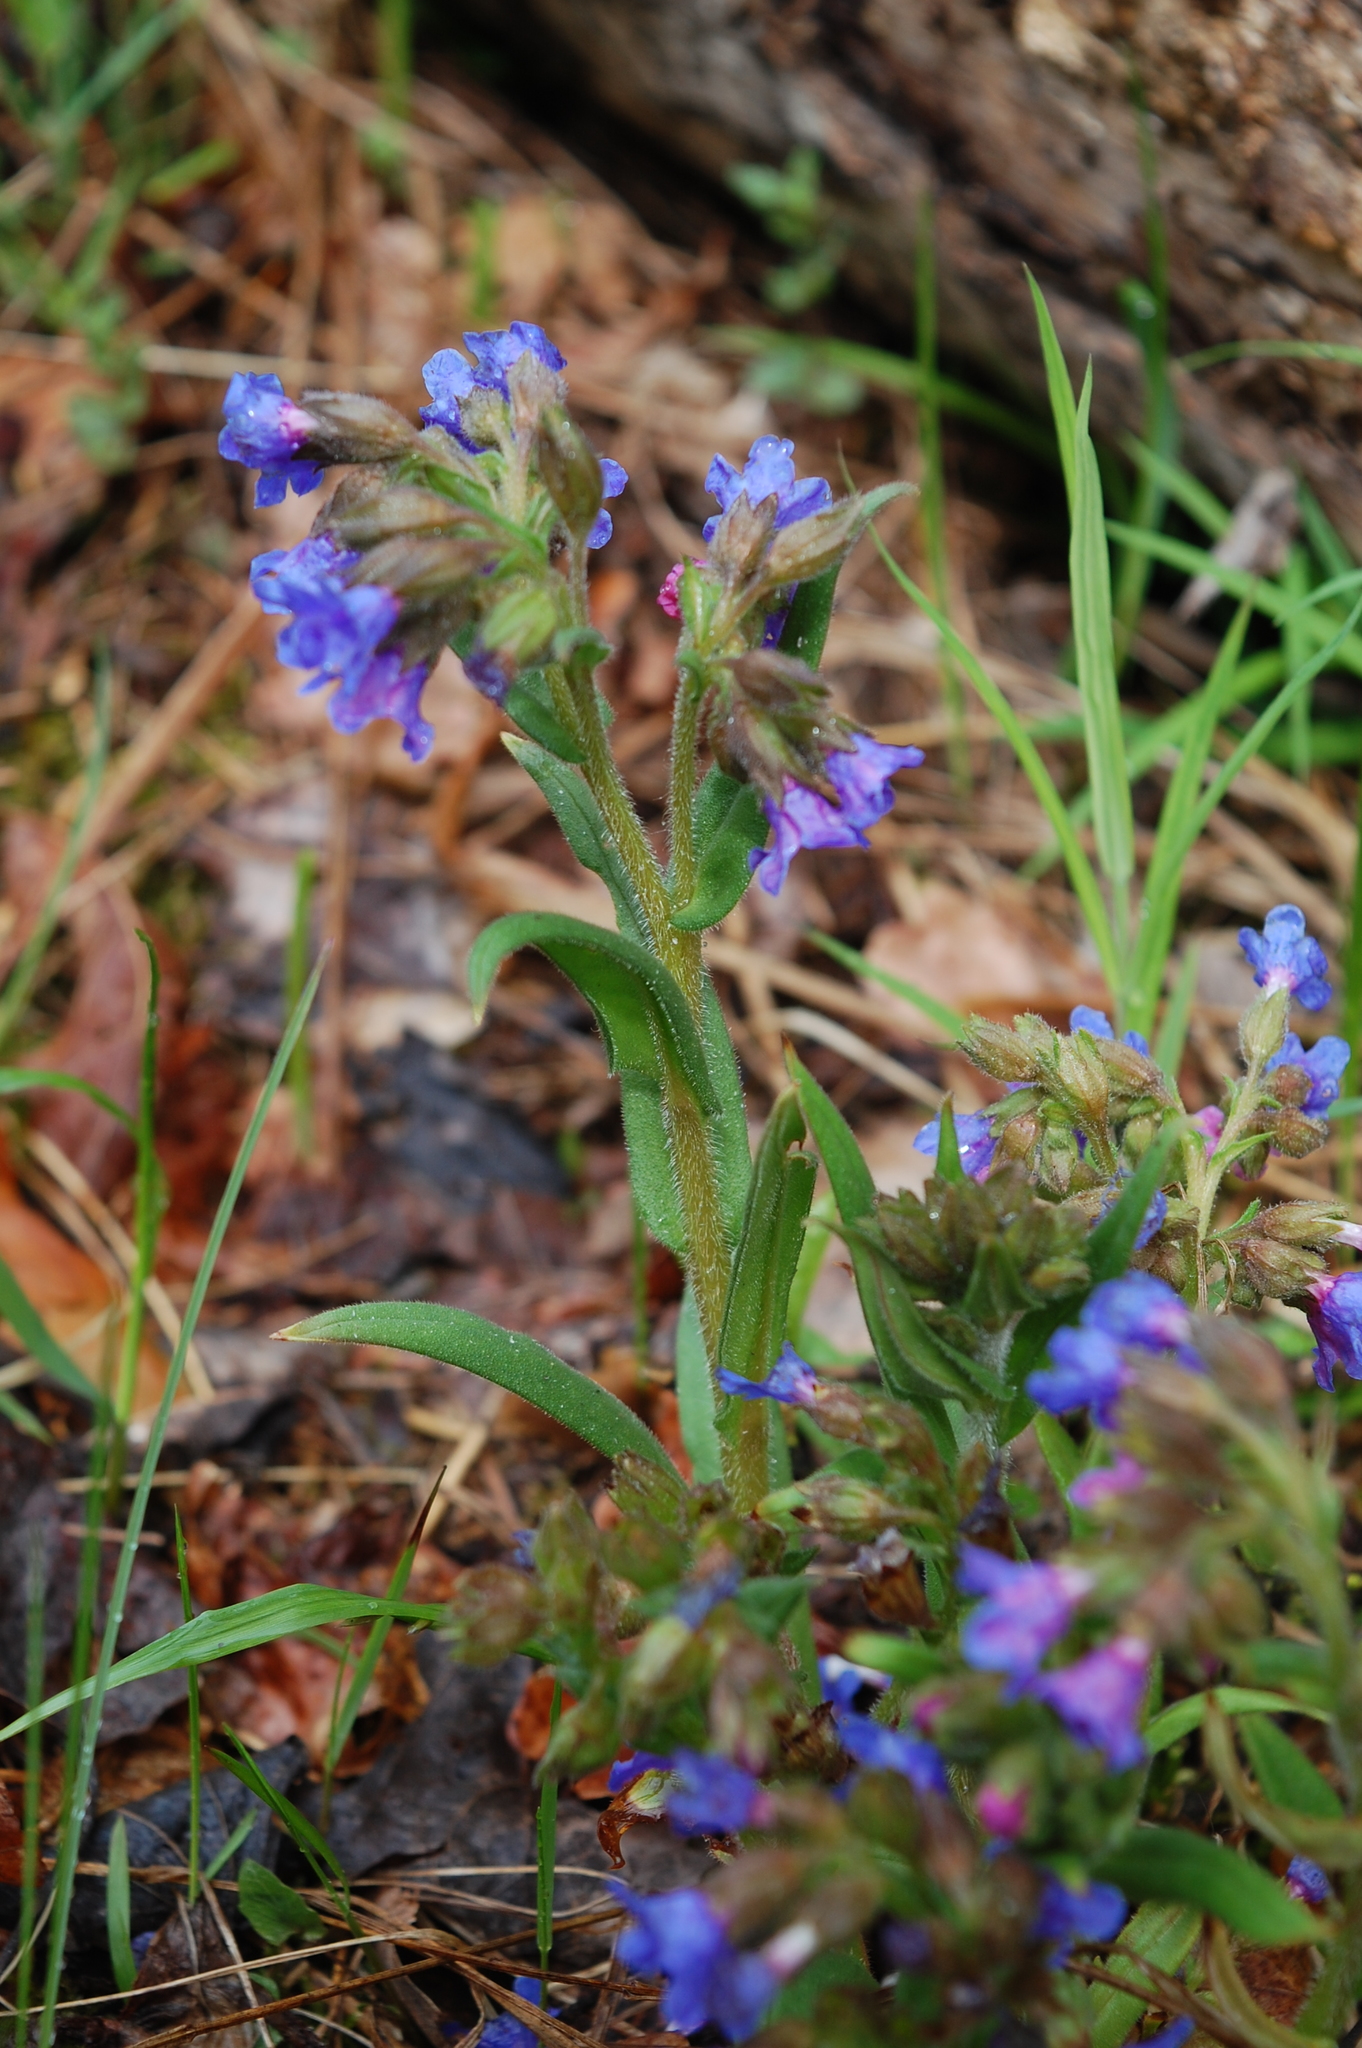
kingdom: Plantae
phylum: Tracheophyta
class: Magnoliopsida
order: Boraginales
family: Boraginaceae
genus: Pulmonaria
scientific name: Pulmonaria angustifolia
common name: Blue cowslip
